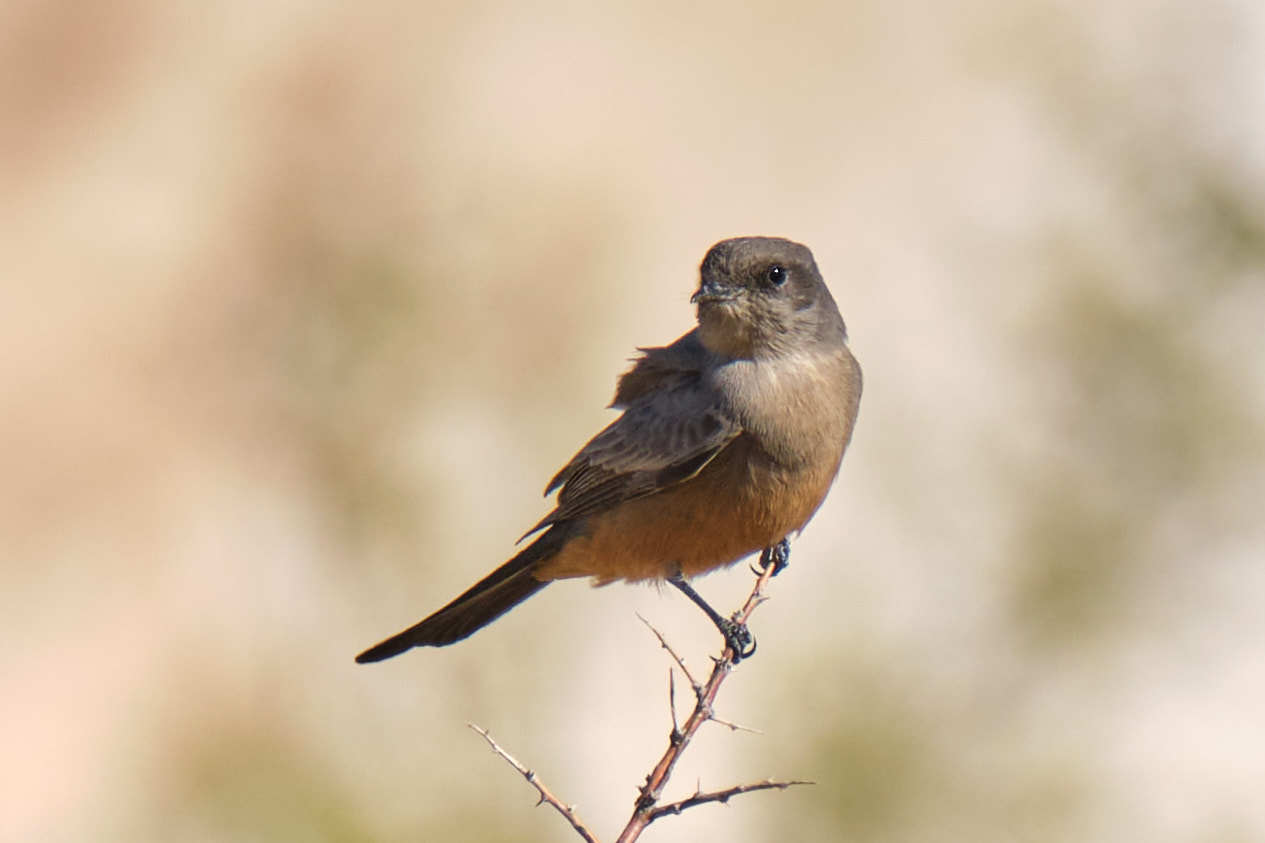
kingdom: Animalia
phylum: Chordata
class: Aves
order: Passeriformes
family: Tyrannidae
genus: Sayornis
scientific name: Sayornis saya
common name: Say's phoebe
